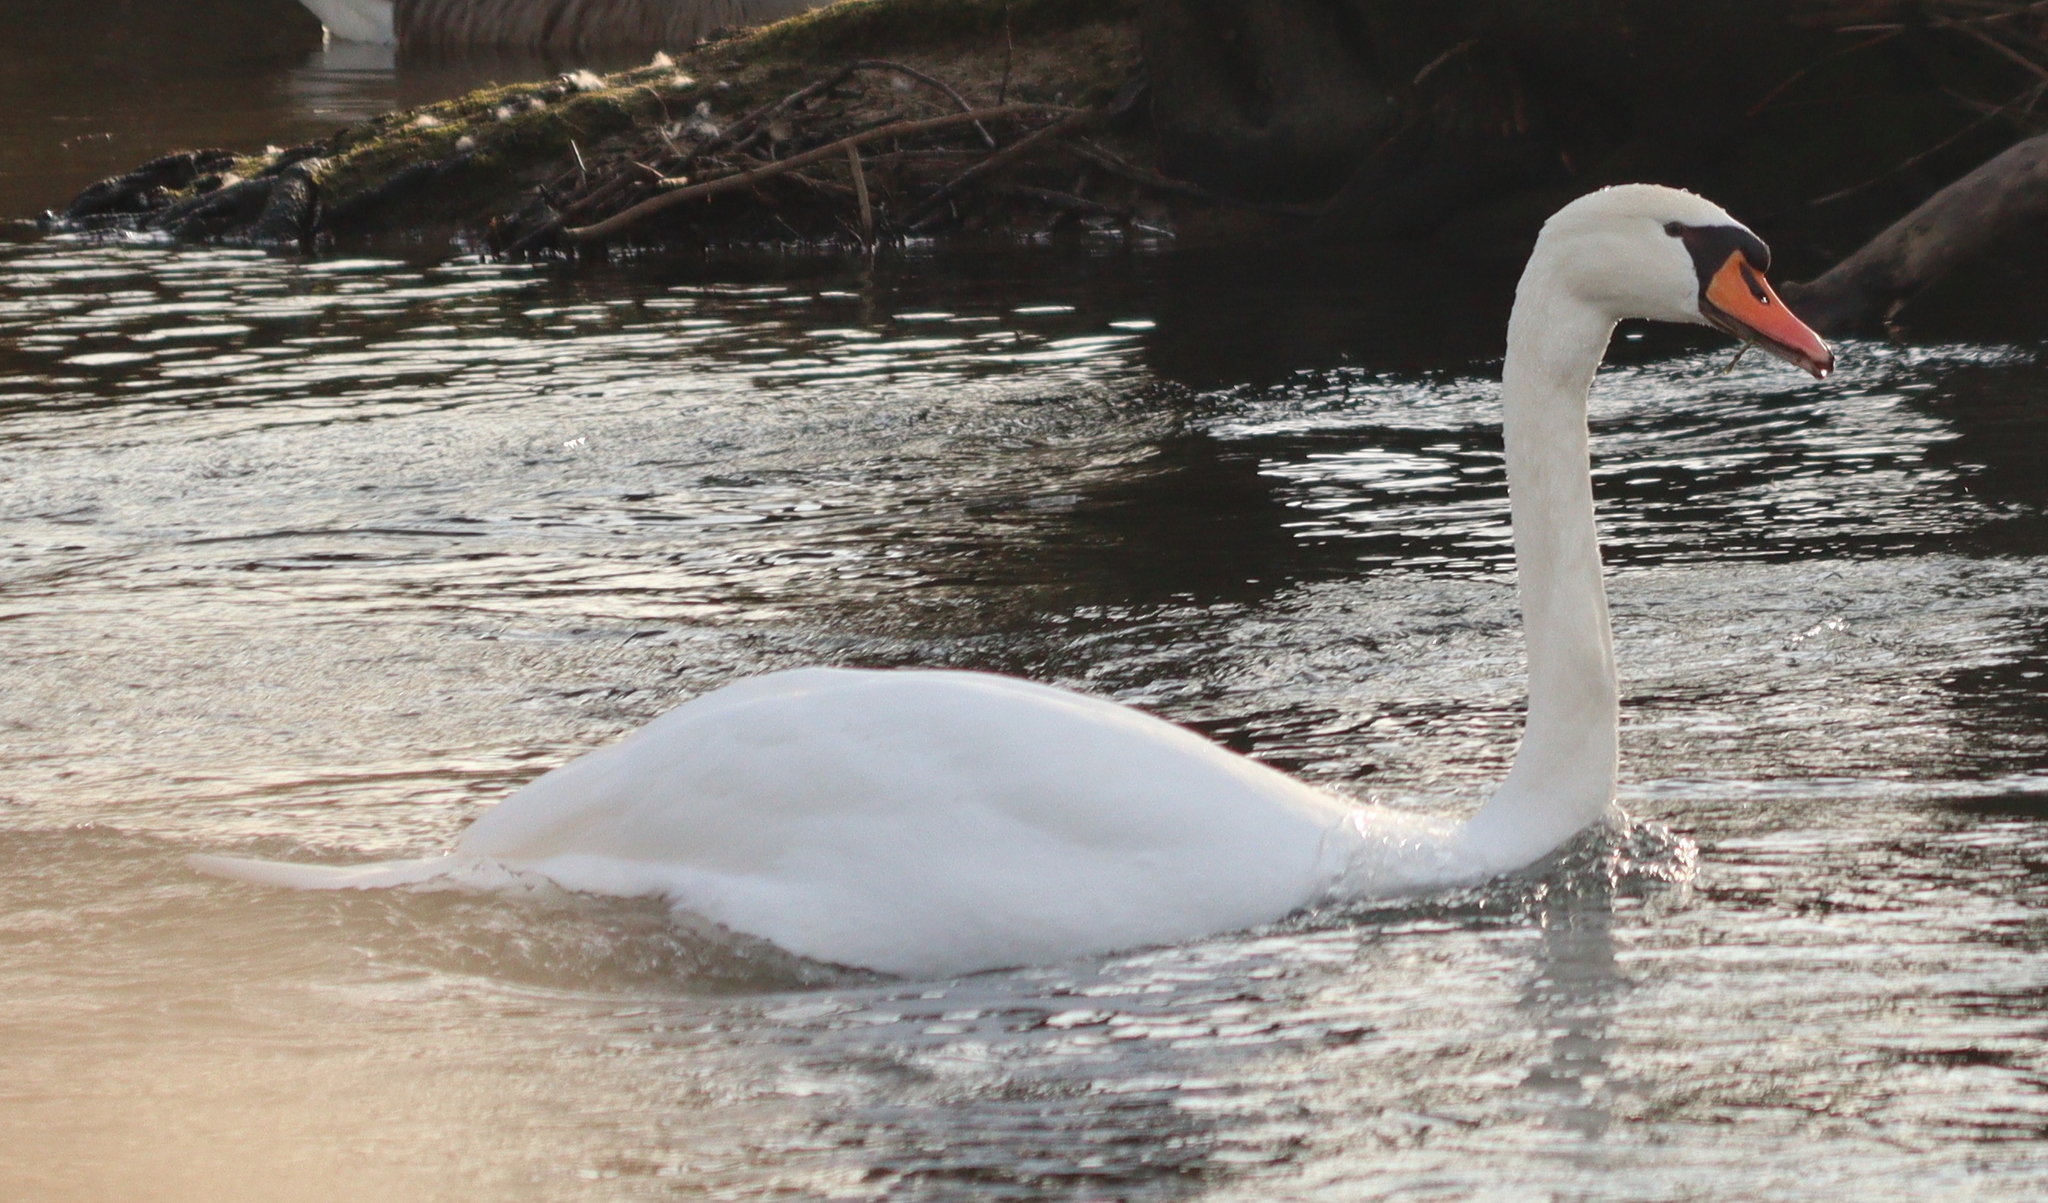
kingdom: Animalia
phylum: Chordata
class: Aves
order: Anseriformes
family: Anatidae
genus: Cygnus
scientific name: Cygnus olor
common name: Mute swan
